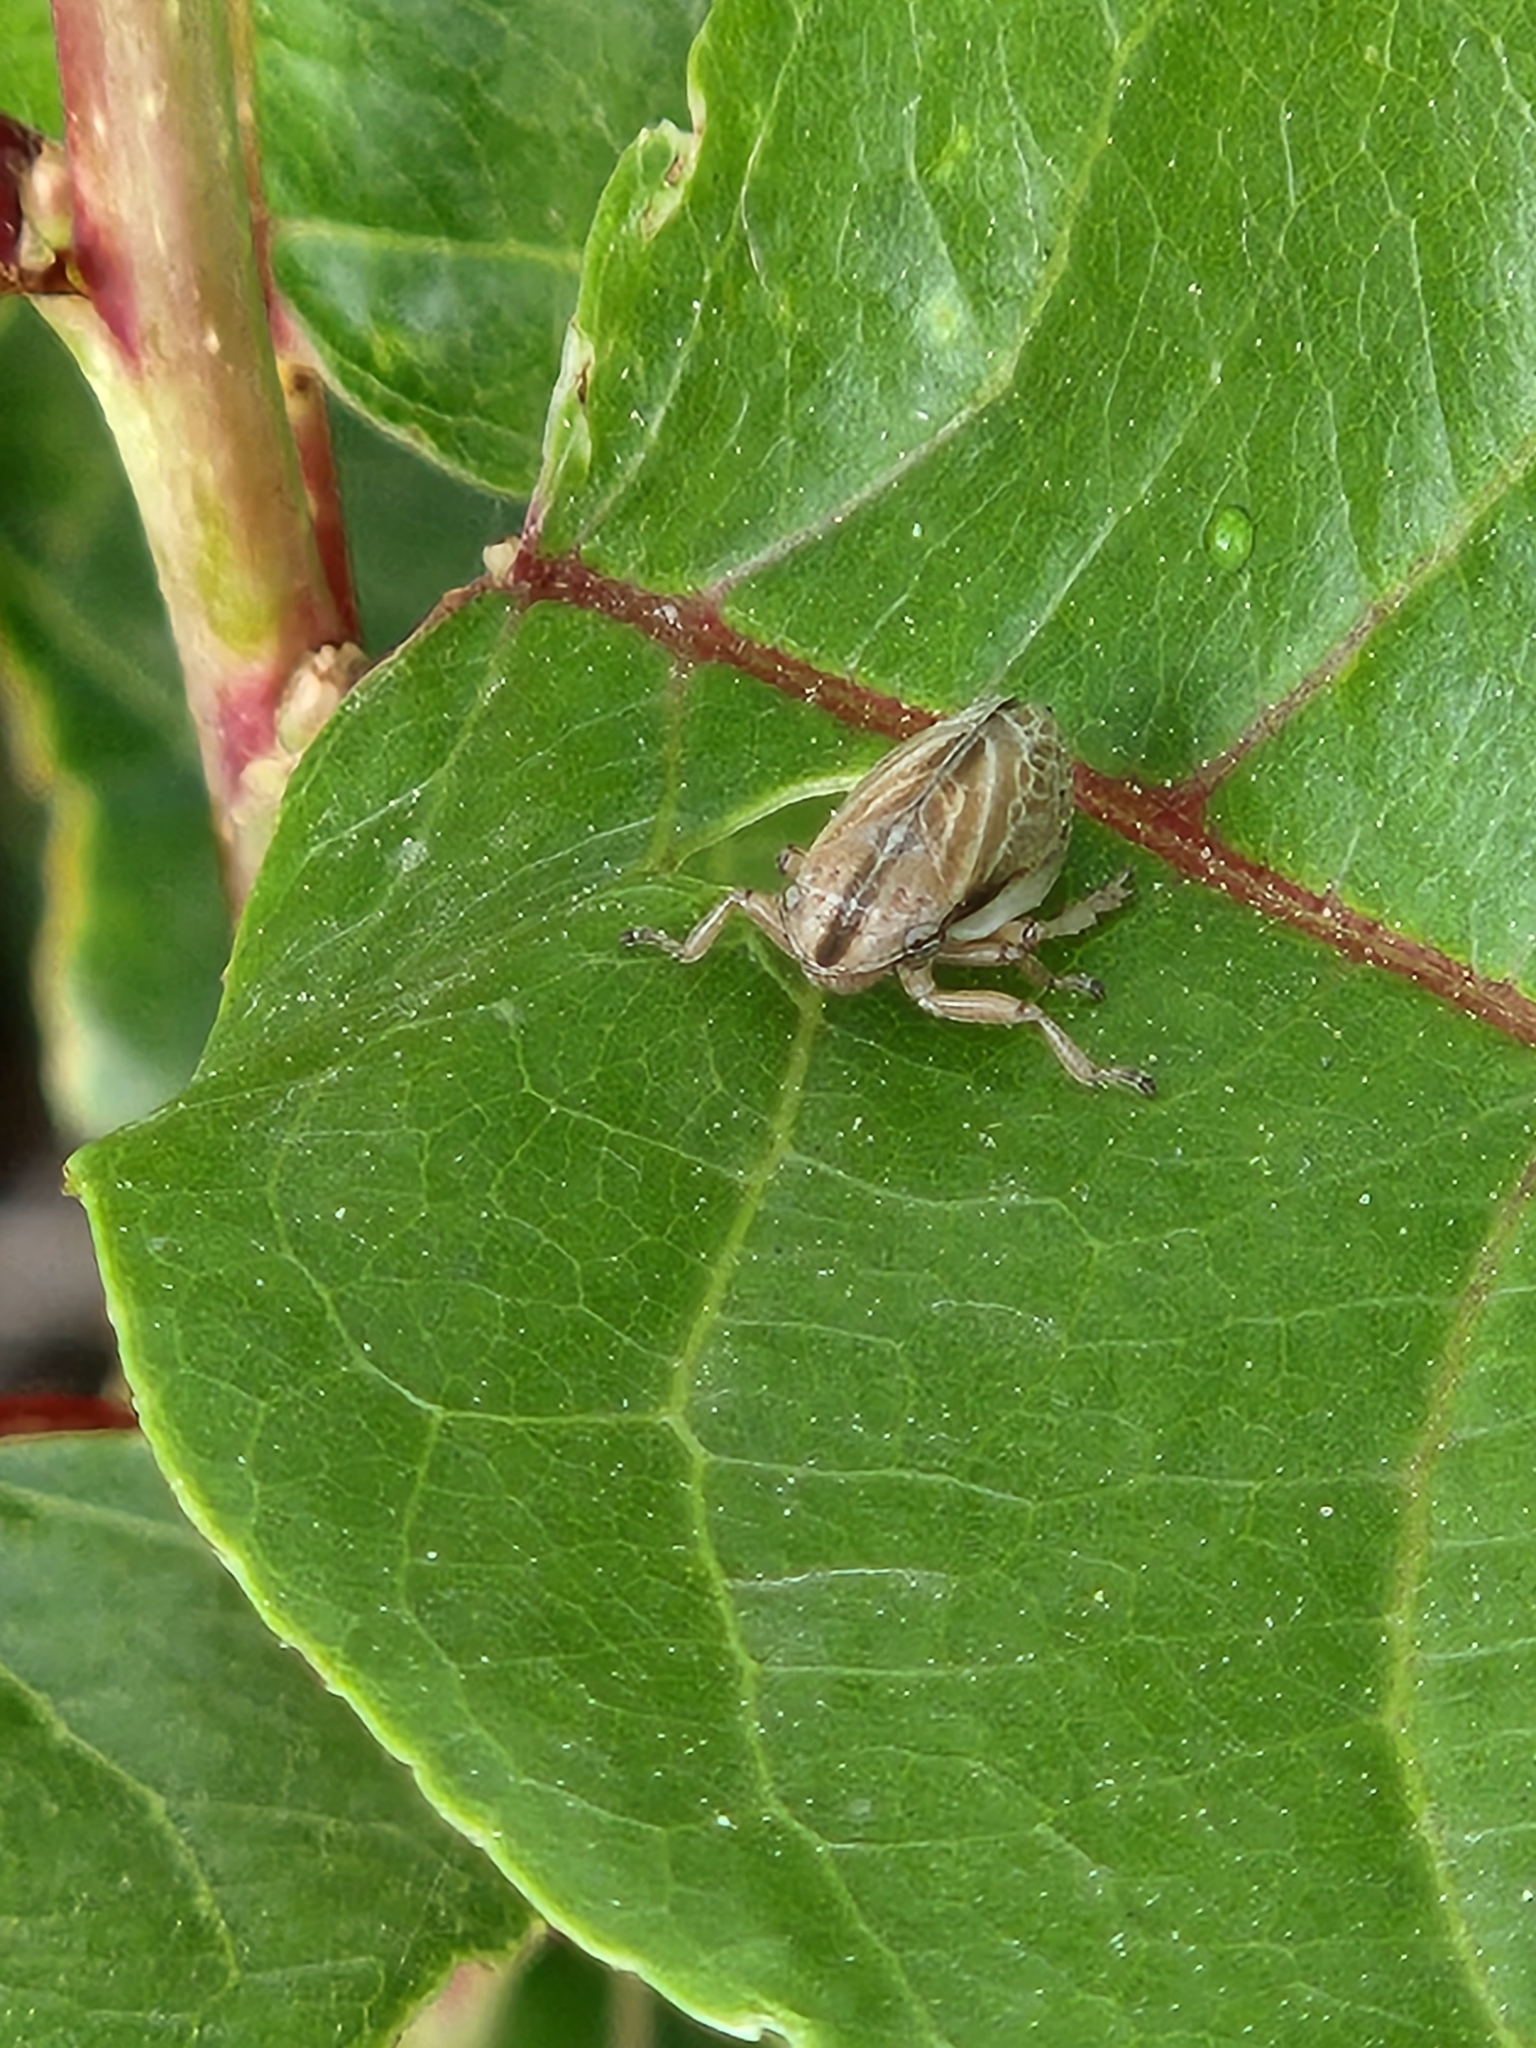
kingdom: Animalia
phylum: Arthropoda
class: Insecta
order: Hemiptera
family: Aphrophoridae
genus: Philaenarcys
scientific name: Philaenarcys bilineata
